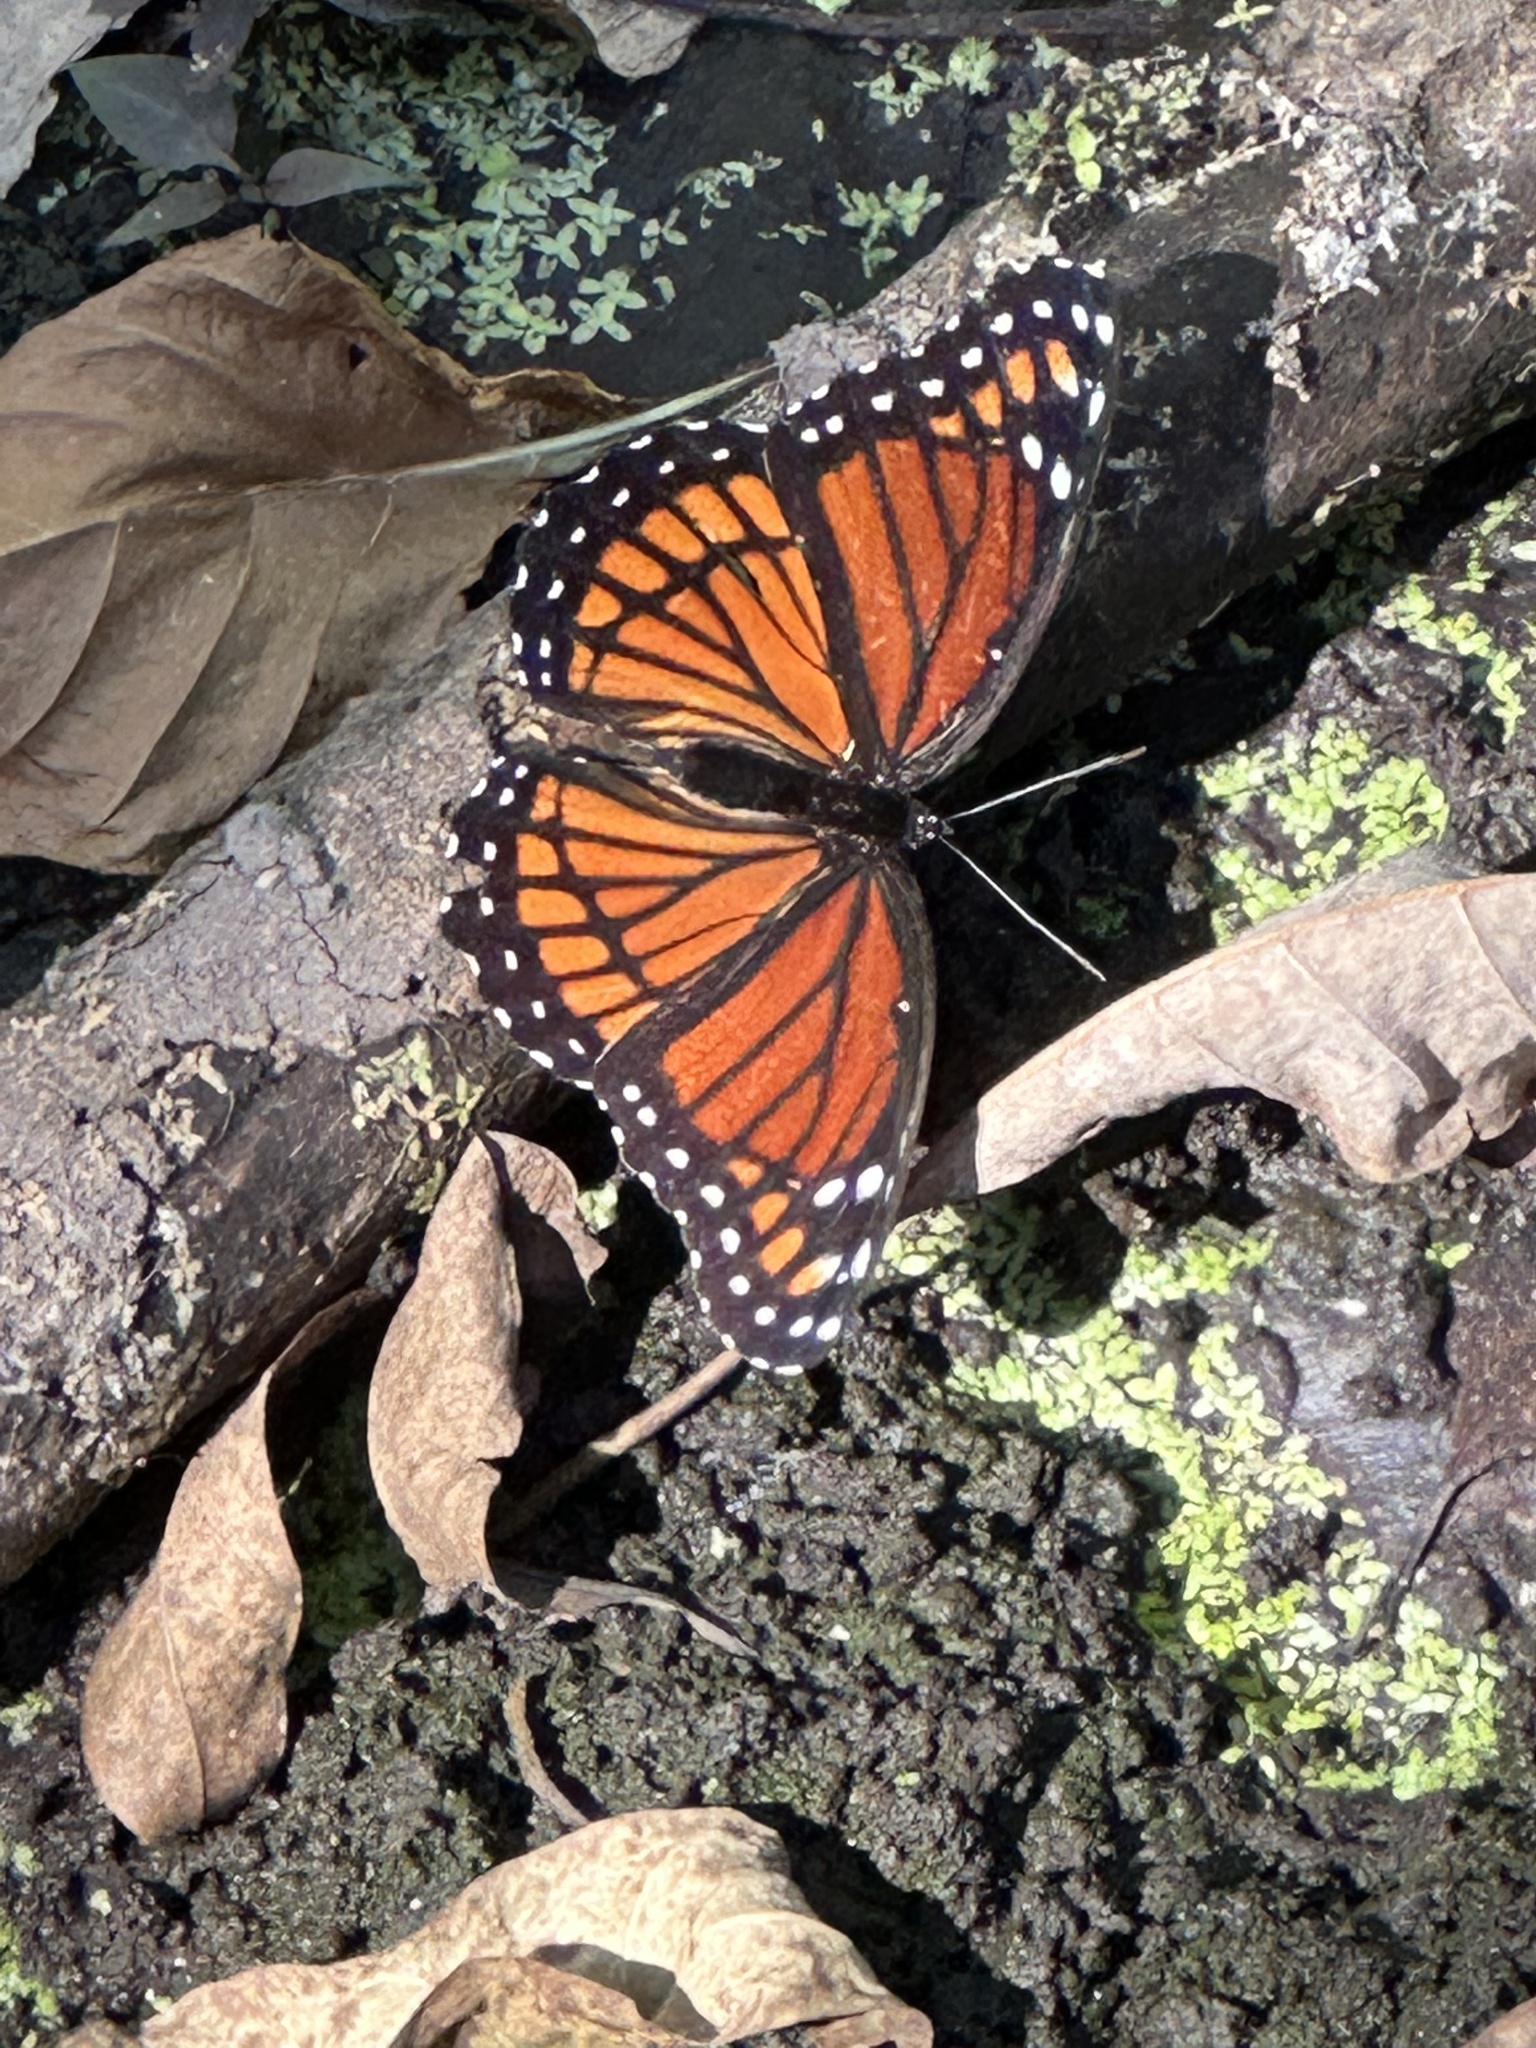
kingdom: Animalia
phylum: Arthropoda
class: Insecta
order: Lepidoptera
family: Nymphalidae
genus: Limenitis
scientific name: Limenitis archippus
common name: Viceroy
